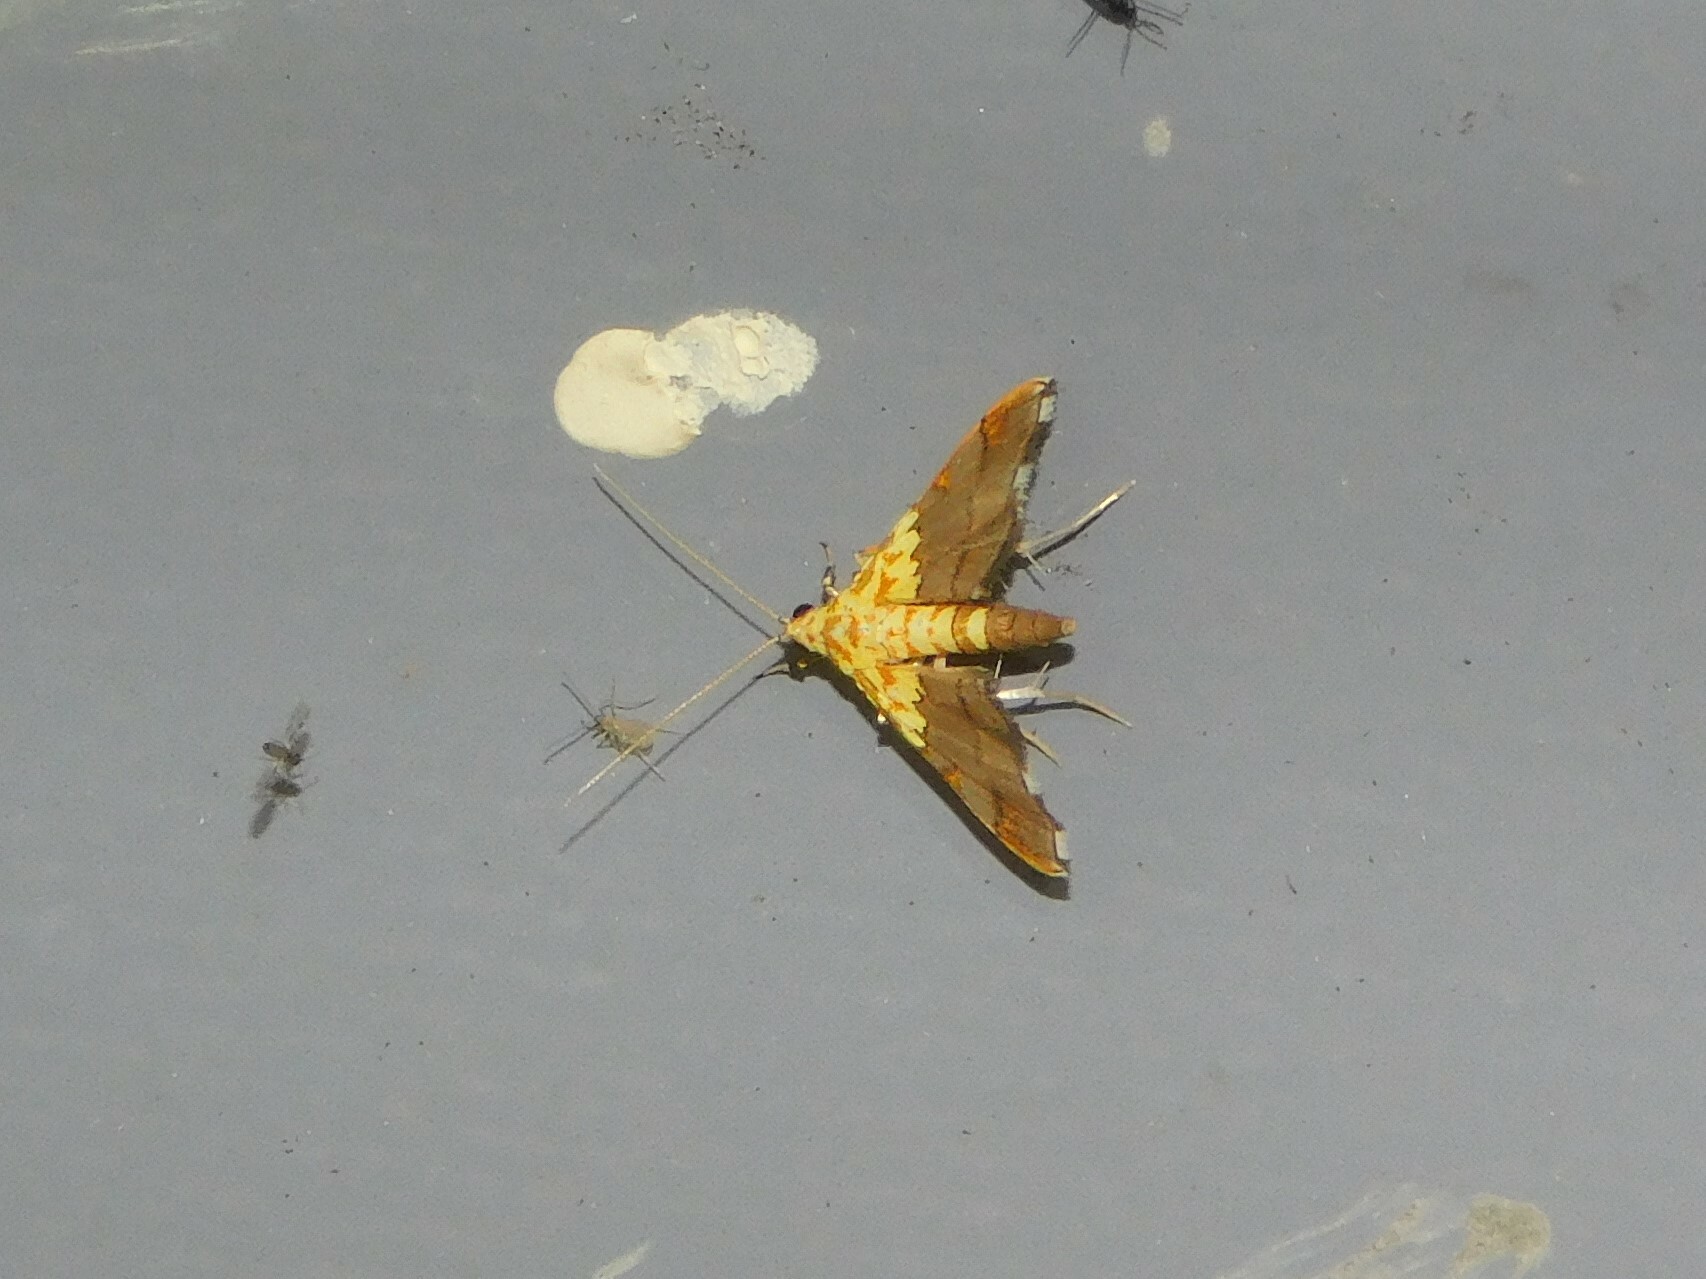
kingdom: Animalia
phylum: Arthropoda
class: Insecta
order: Lepidoptera
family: Crambidae
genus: Agrotera
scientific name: Agrotera citrina
